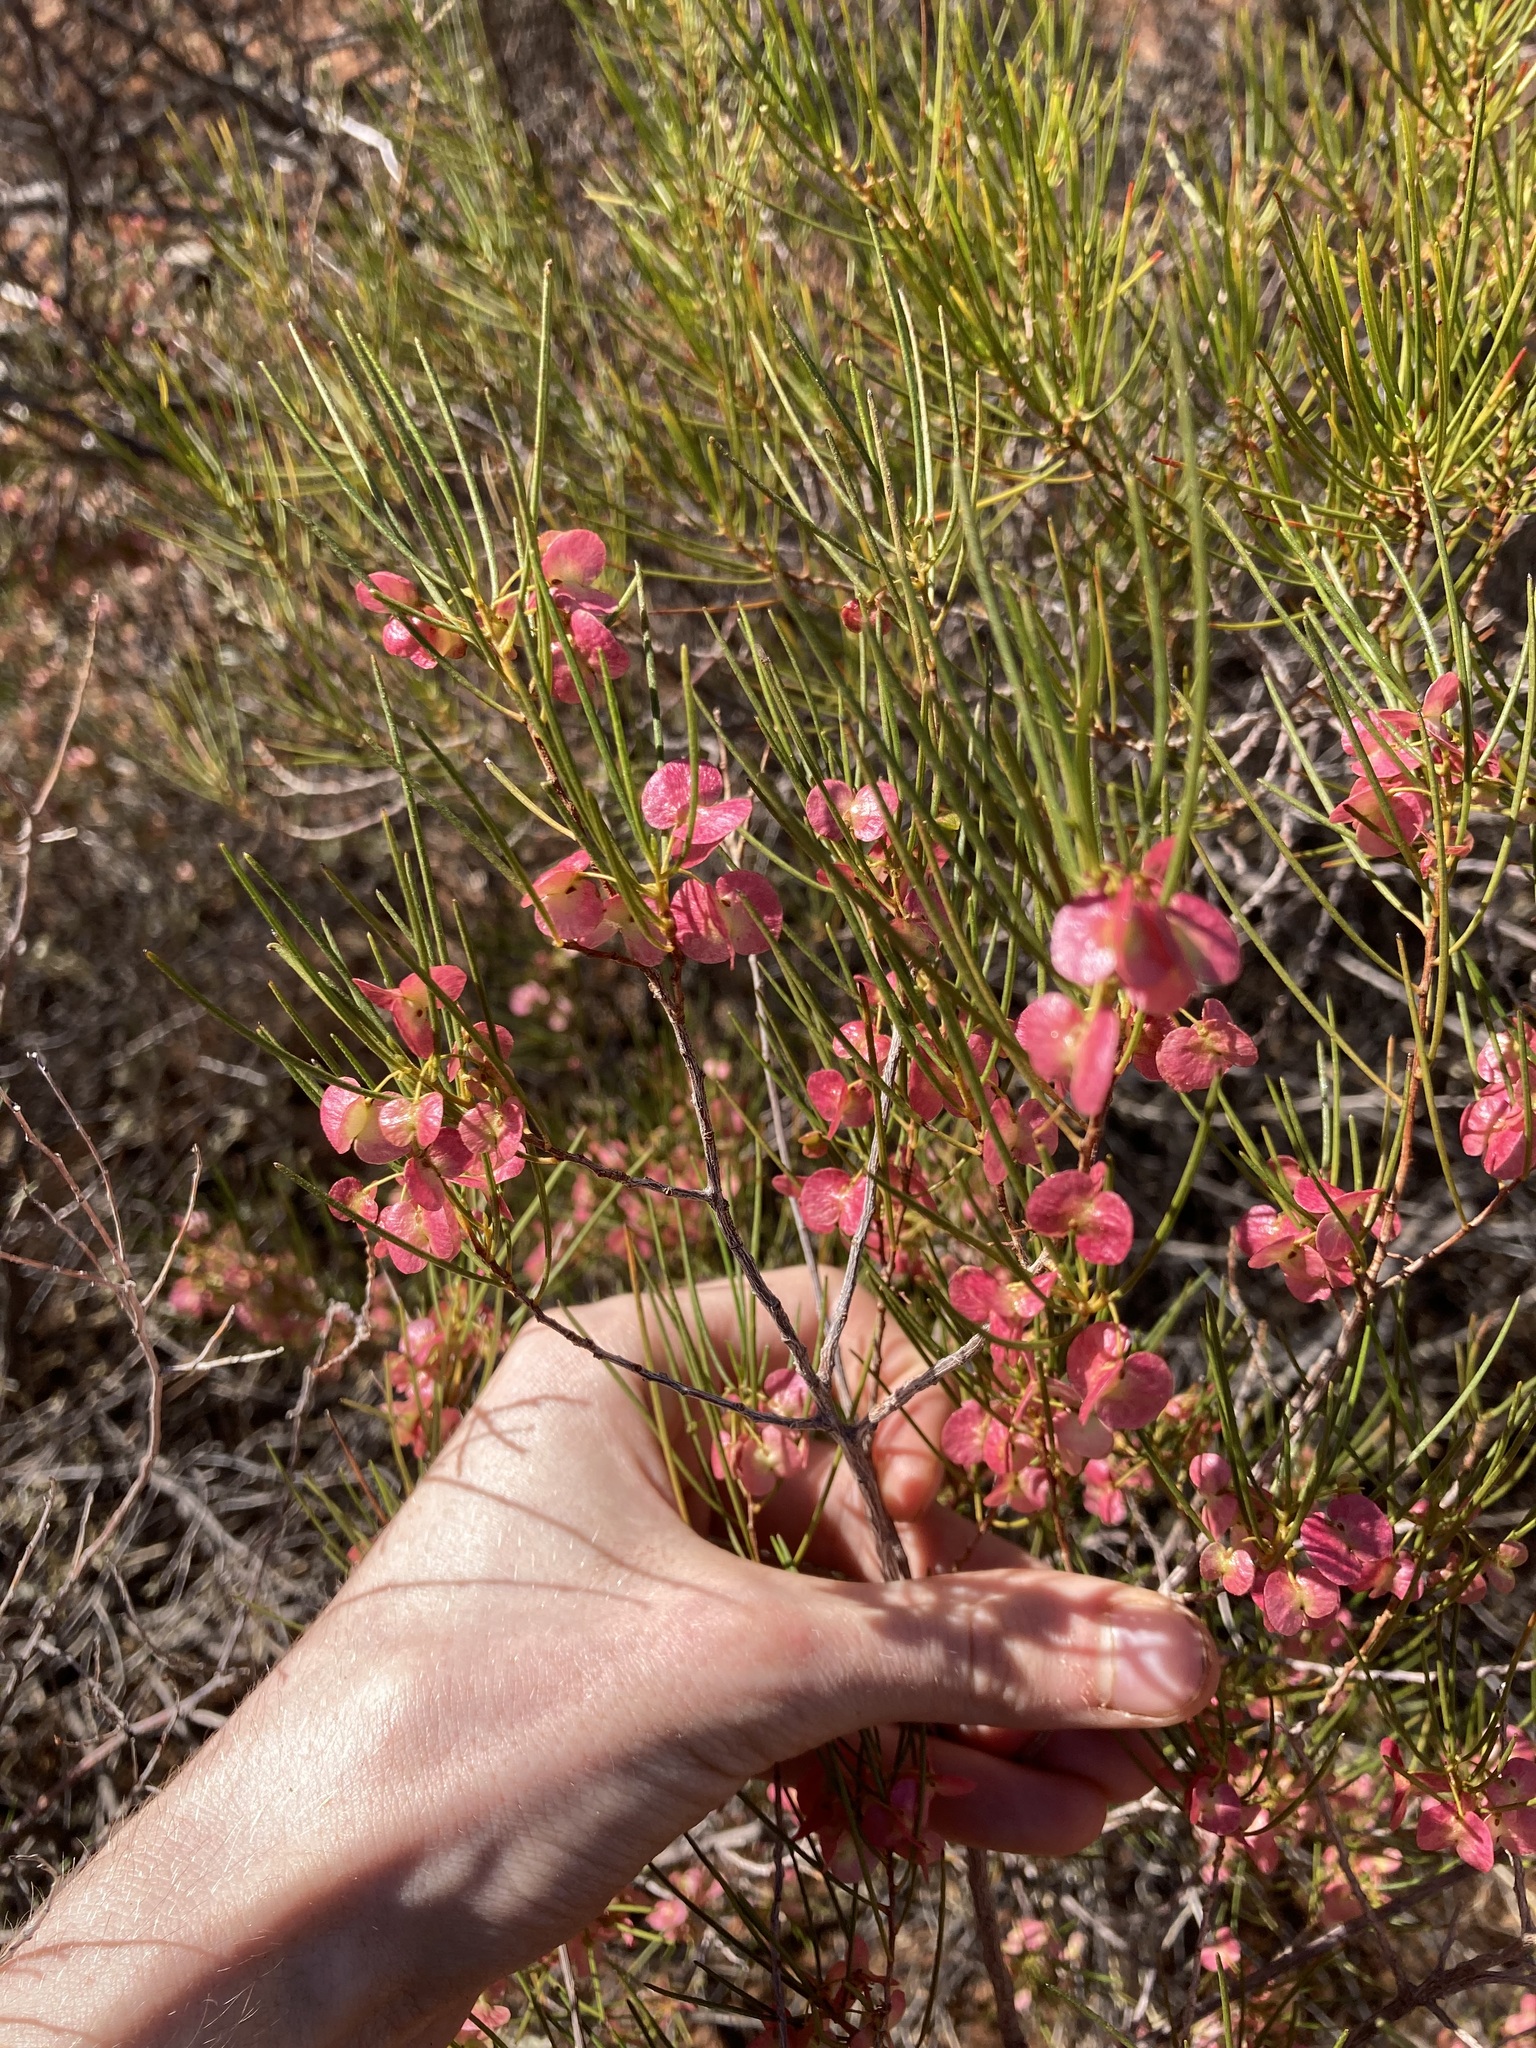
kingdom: Plantae
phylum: Tracheophyta
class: Magnoliopsida
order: Sapindales
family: Sapindaceae
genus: Dodonaea
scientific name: Dodonaea rigida
